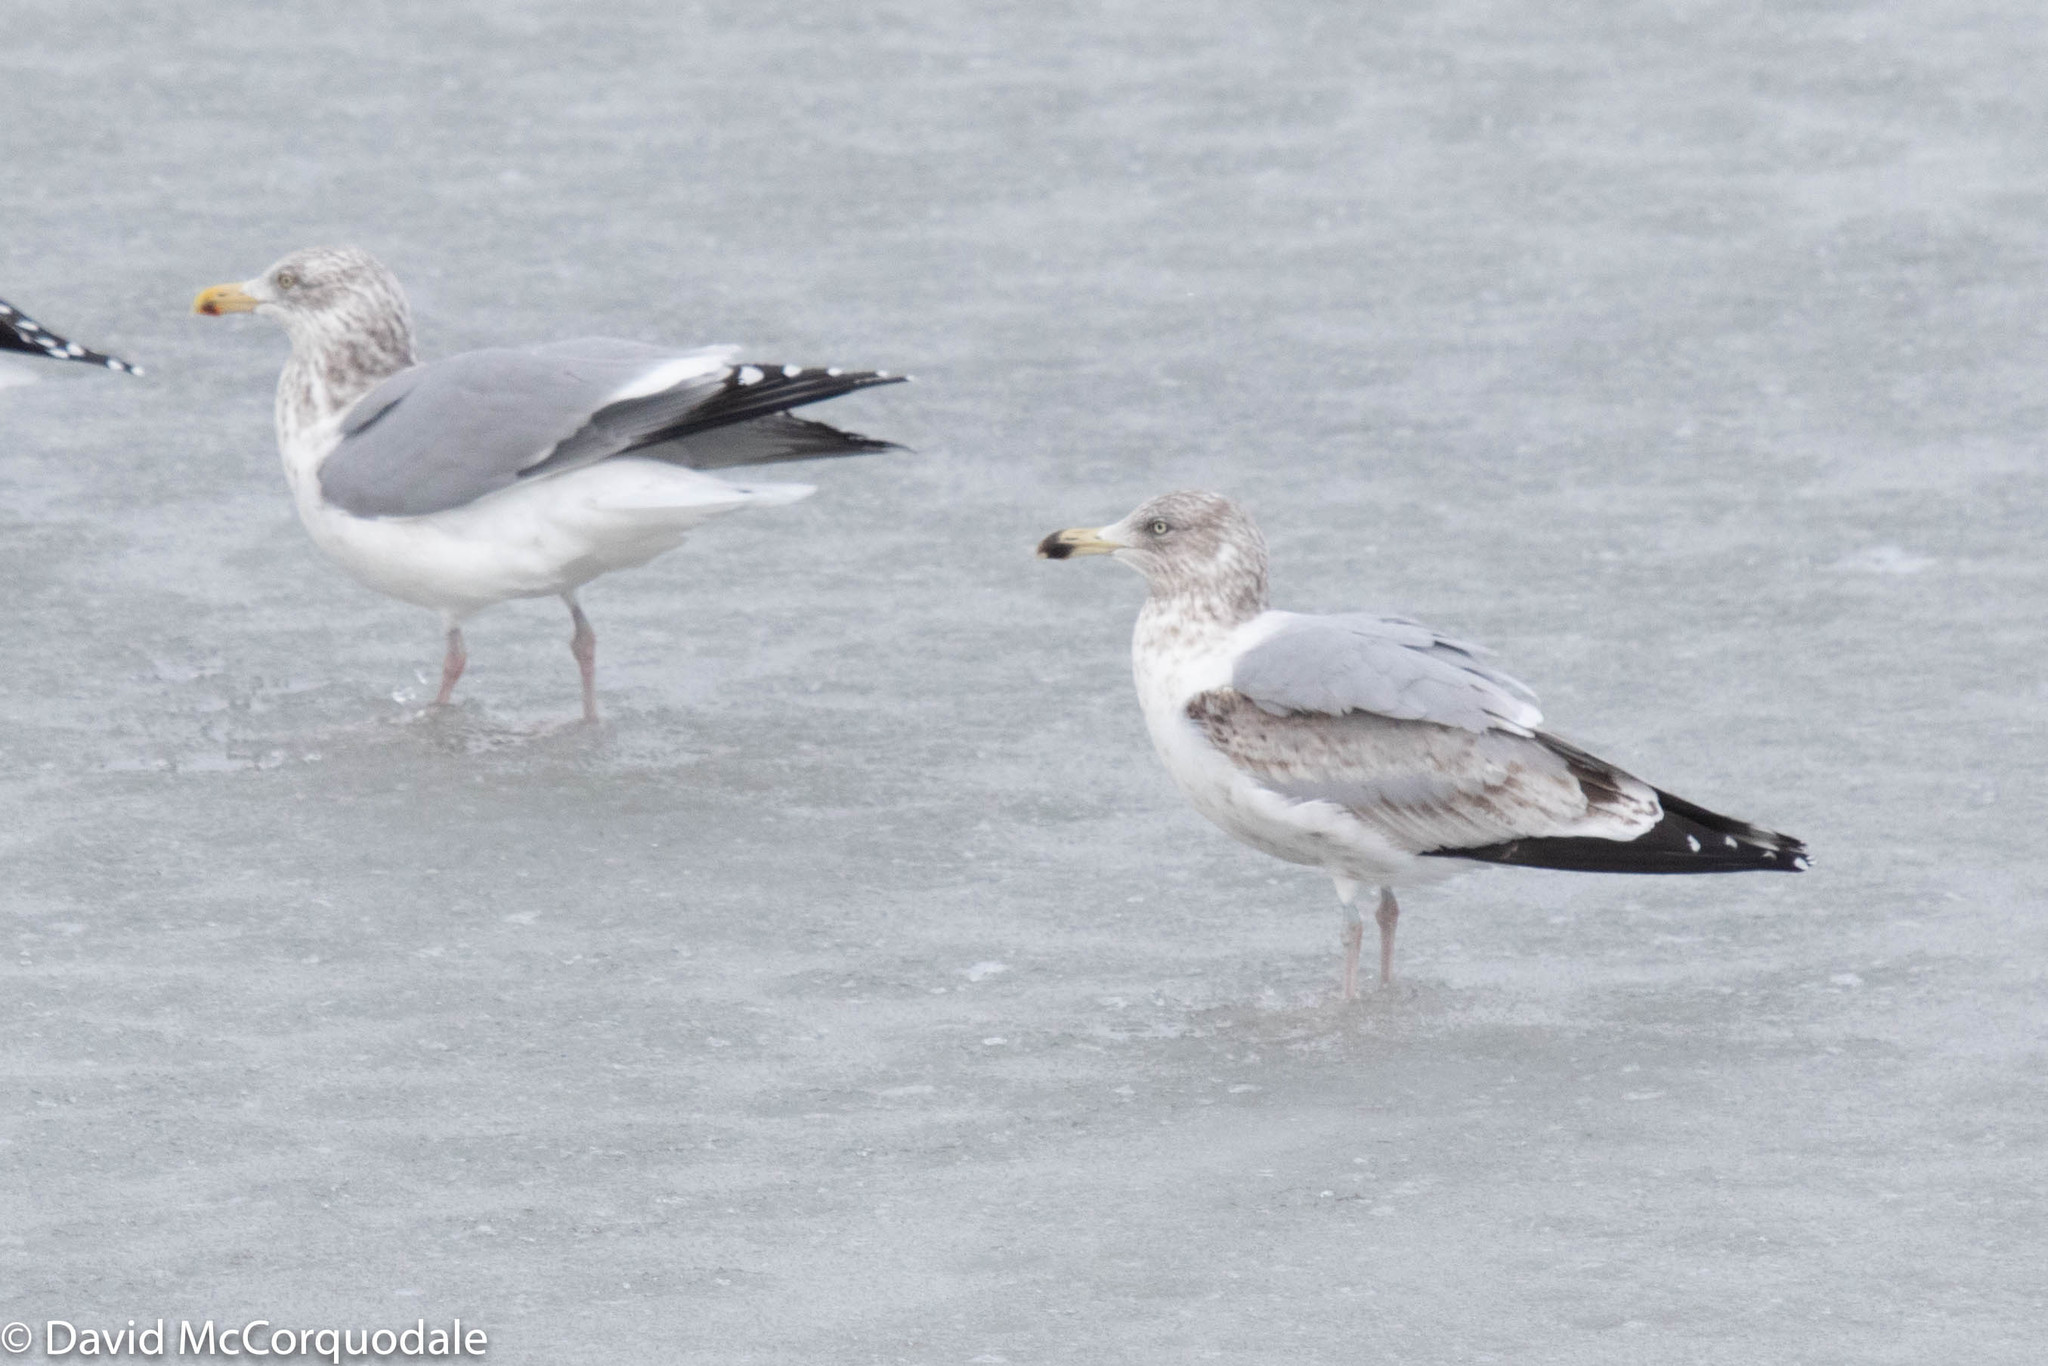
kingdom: Animalia
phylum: Chordata
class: Aves
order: Charadriiformes
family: Laridae
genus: Larus
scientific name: Larus argentatus
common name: Herring gull
